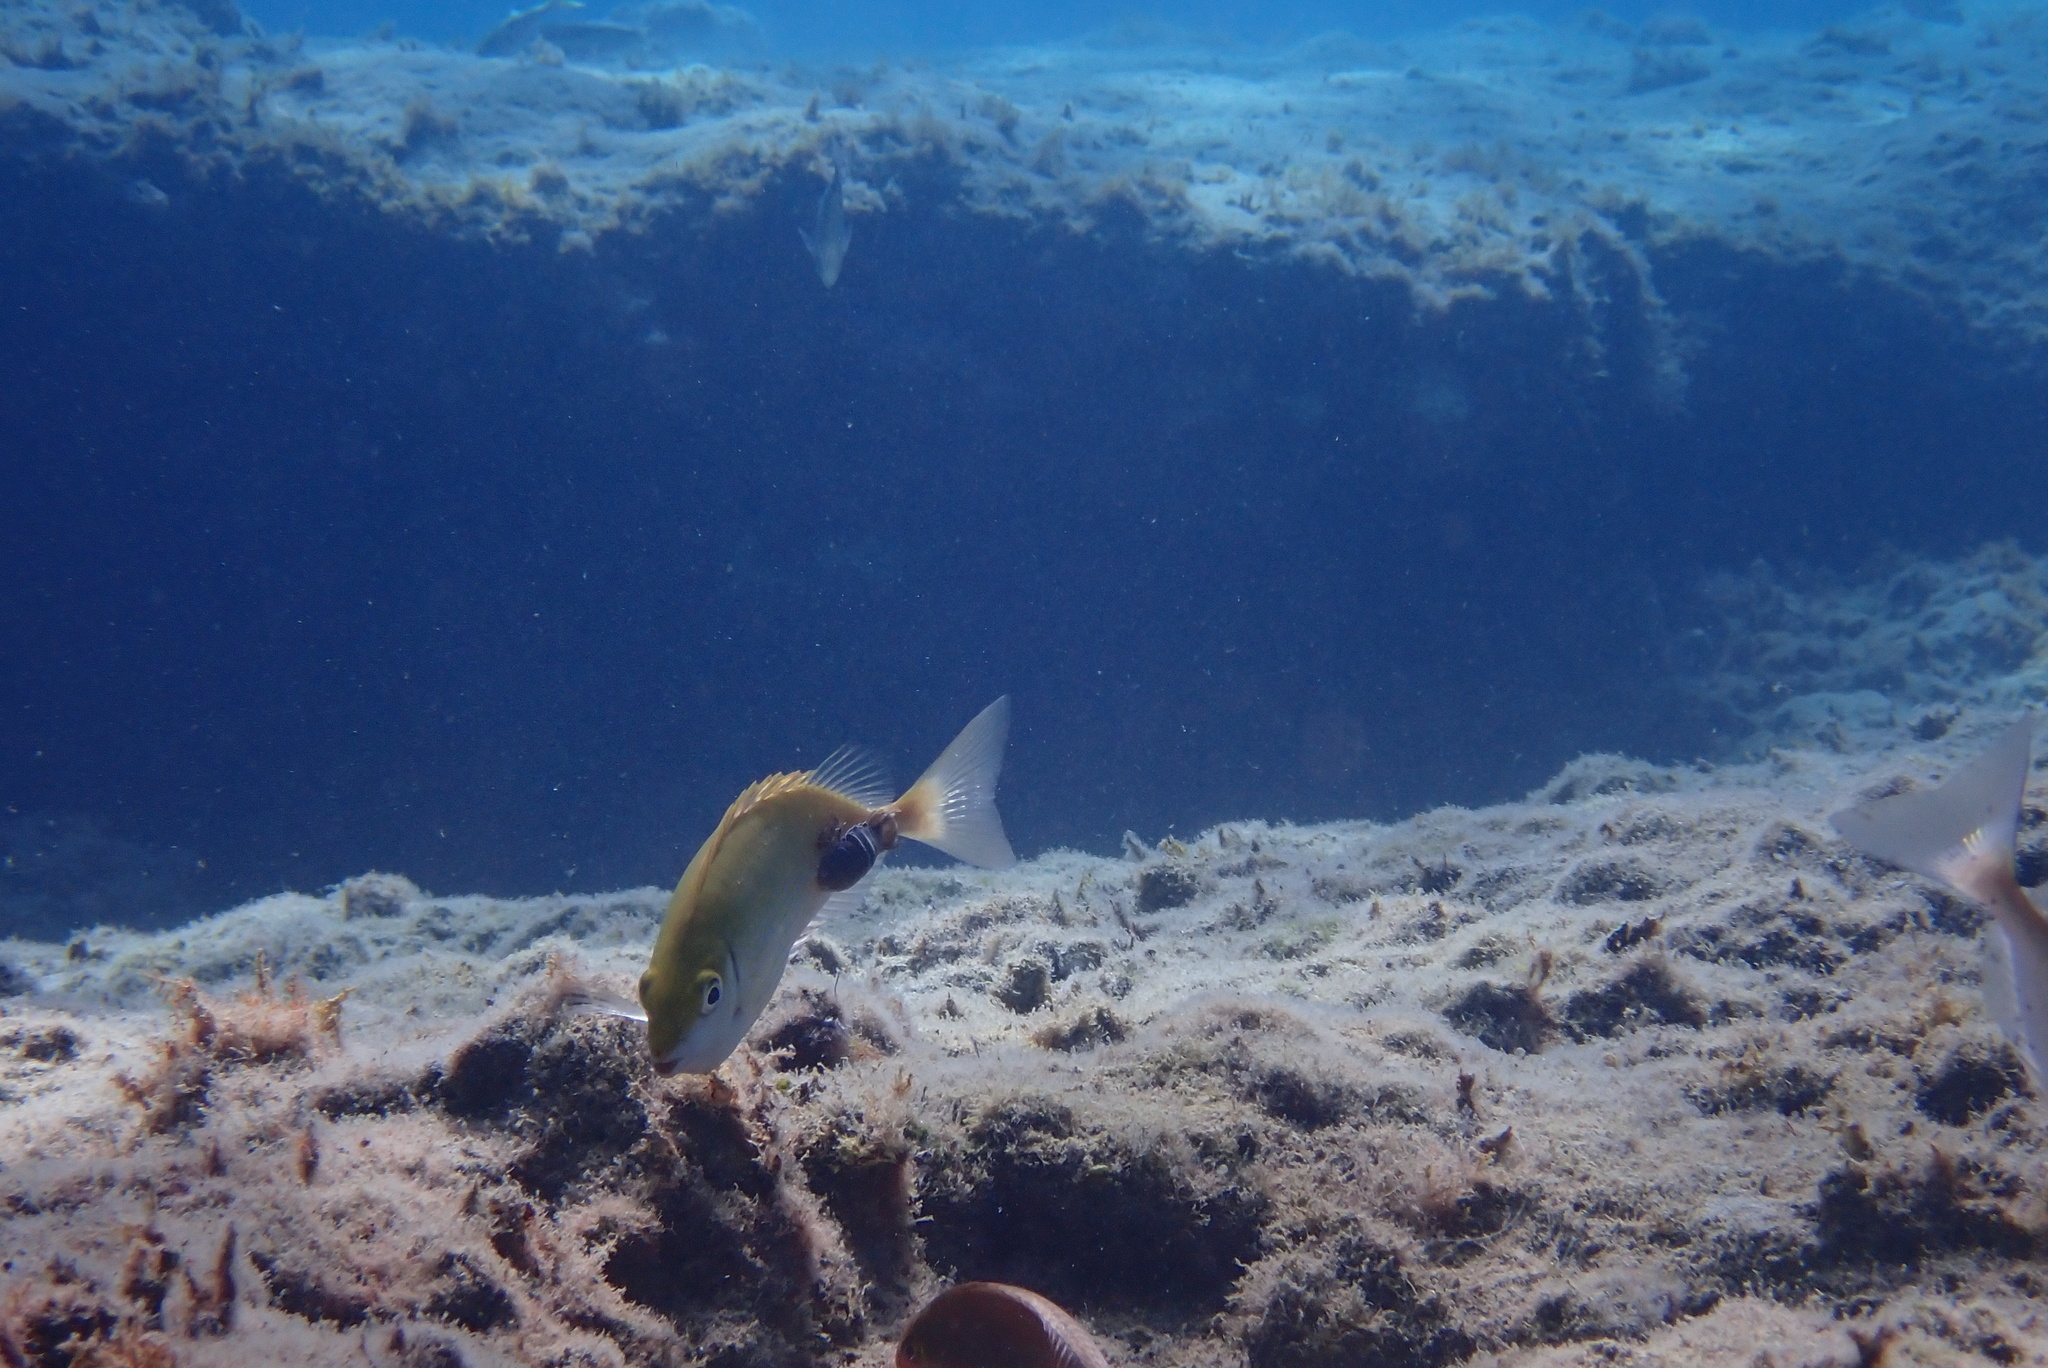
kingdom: Animalia
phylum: Chordata
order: Perciformes
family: Siganidae
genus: Siganus
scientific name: Siganus rivulatus
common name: Marbled spinefoot
